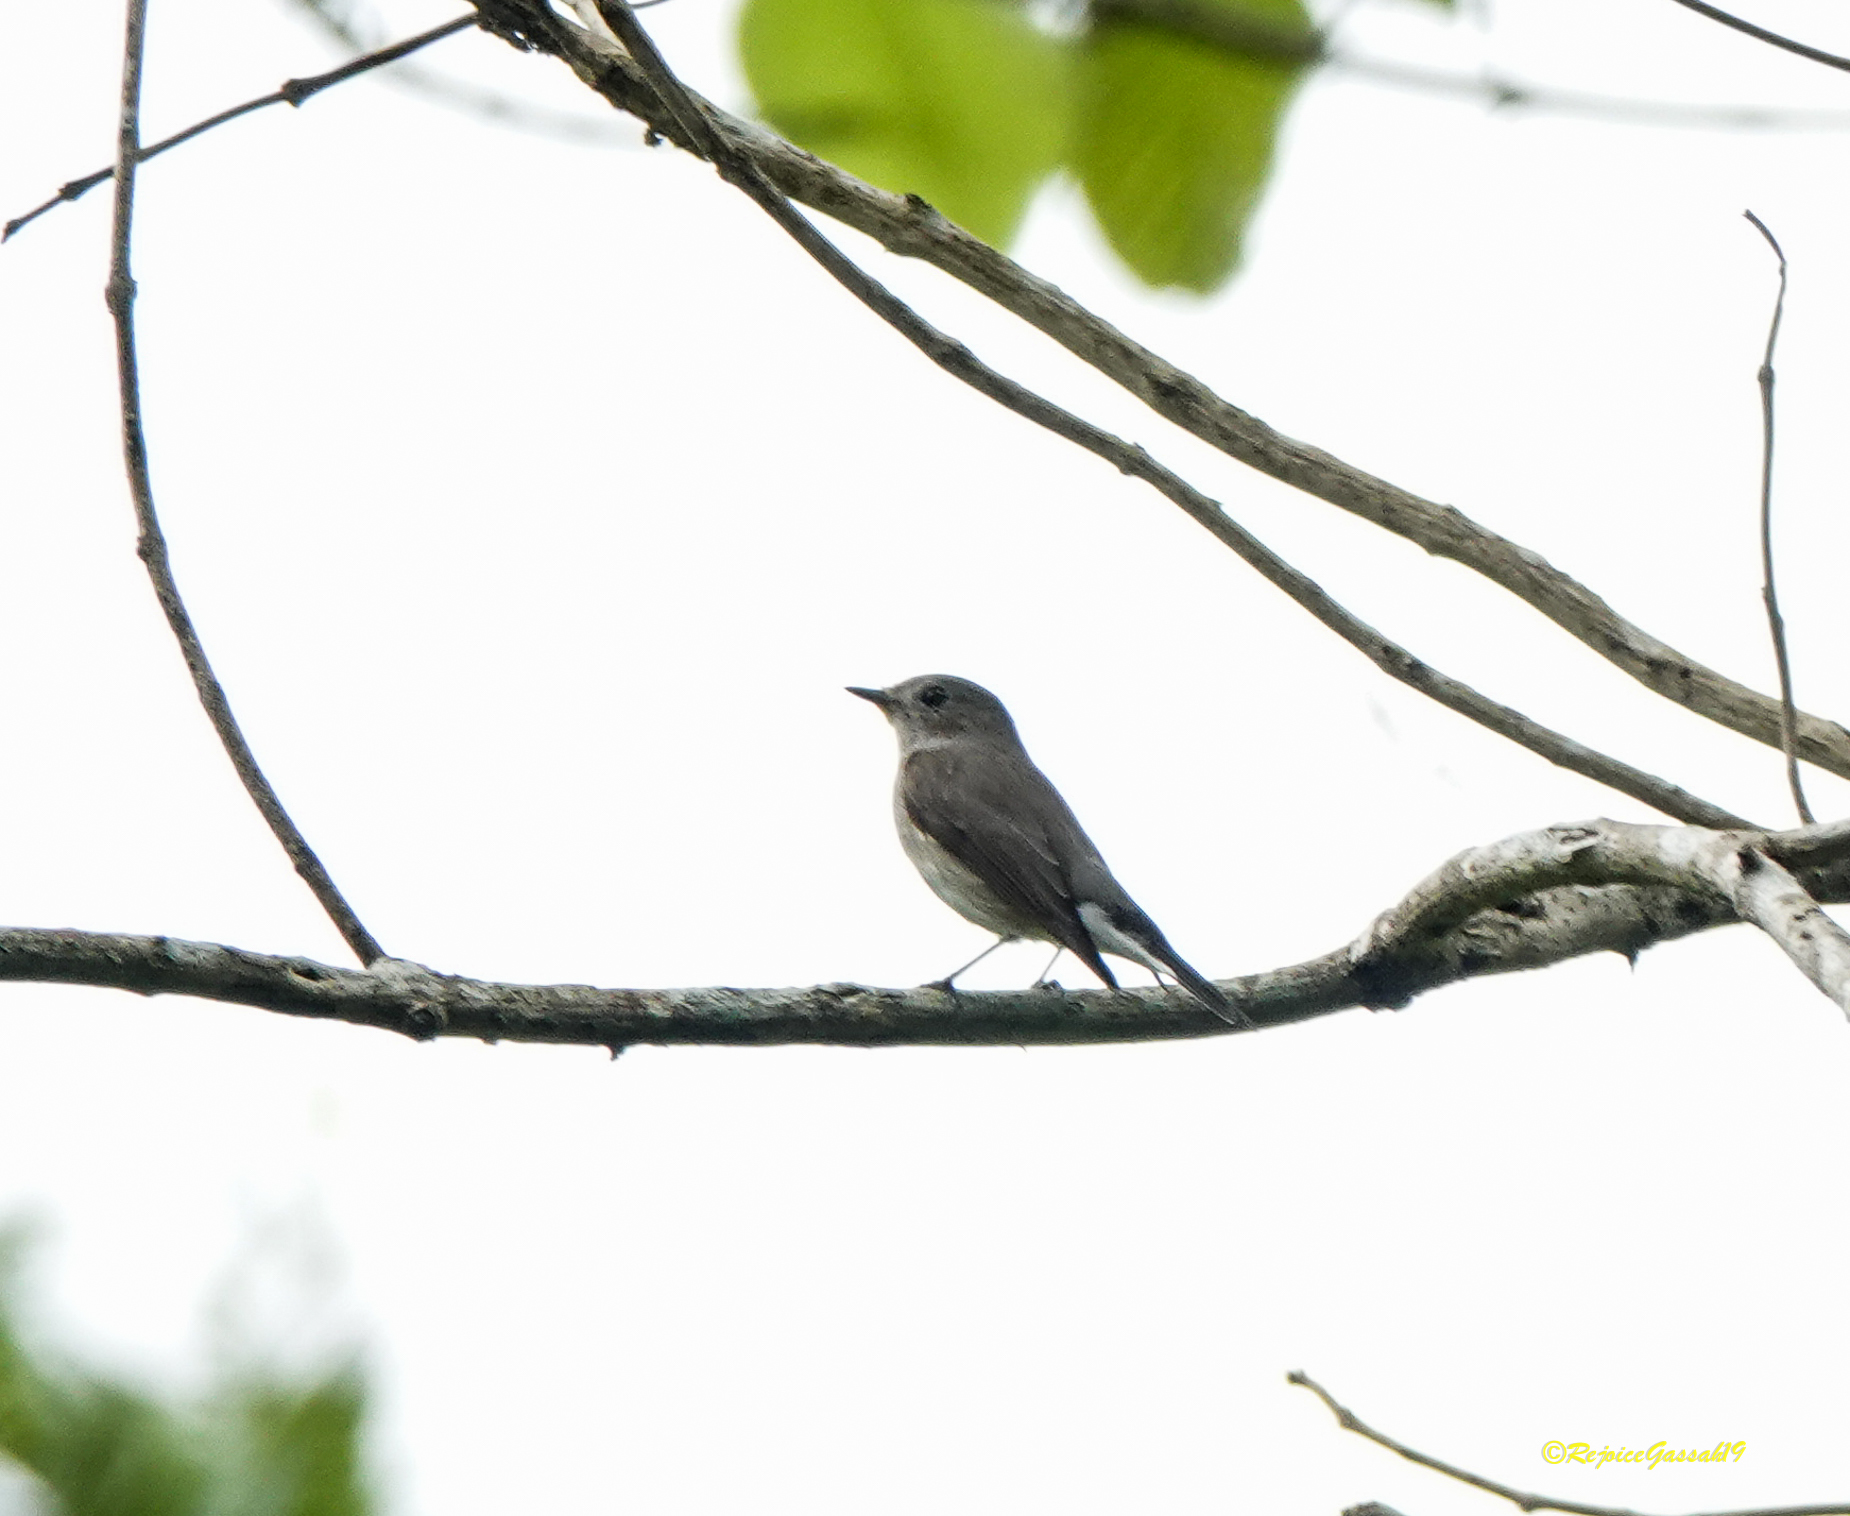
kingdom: Animalia
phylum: Chordata
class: Aves
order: Passeriformes
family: Muscicapidae
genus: Ficedula
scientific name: Ficedula albicilla
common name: Taiga flycatcher
